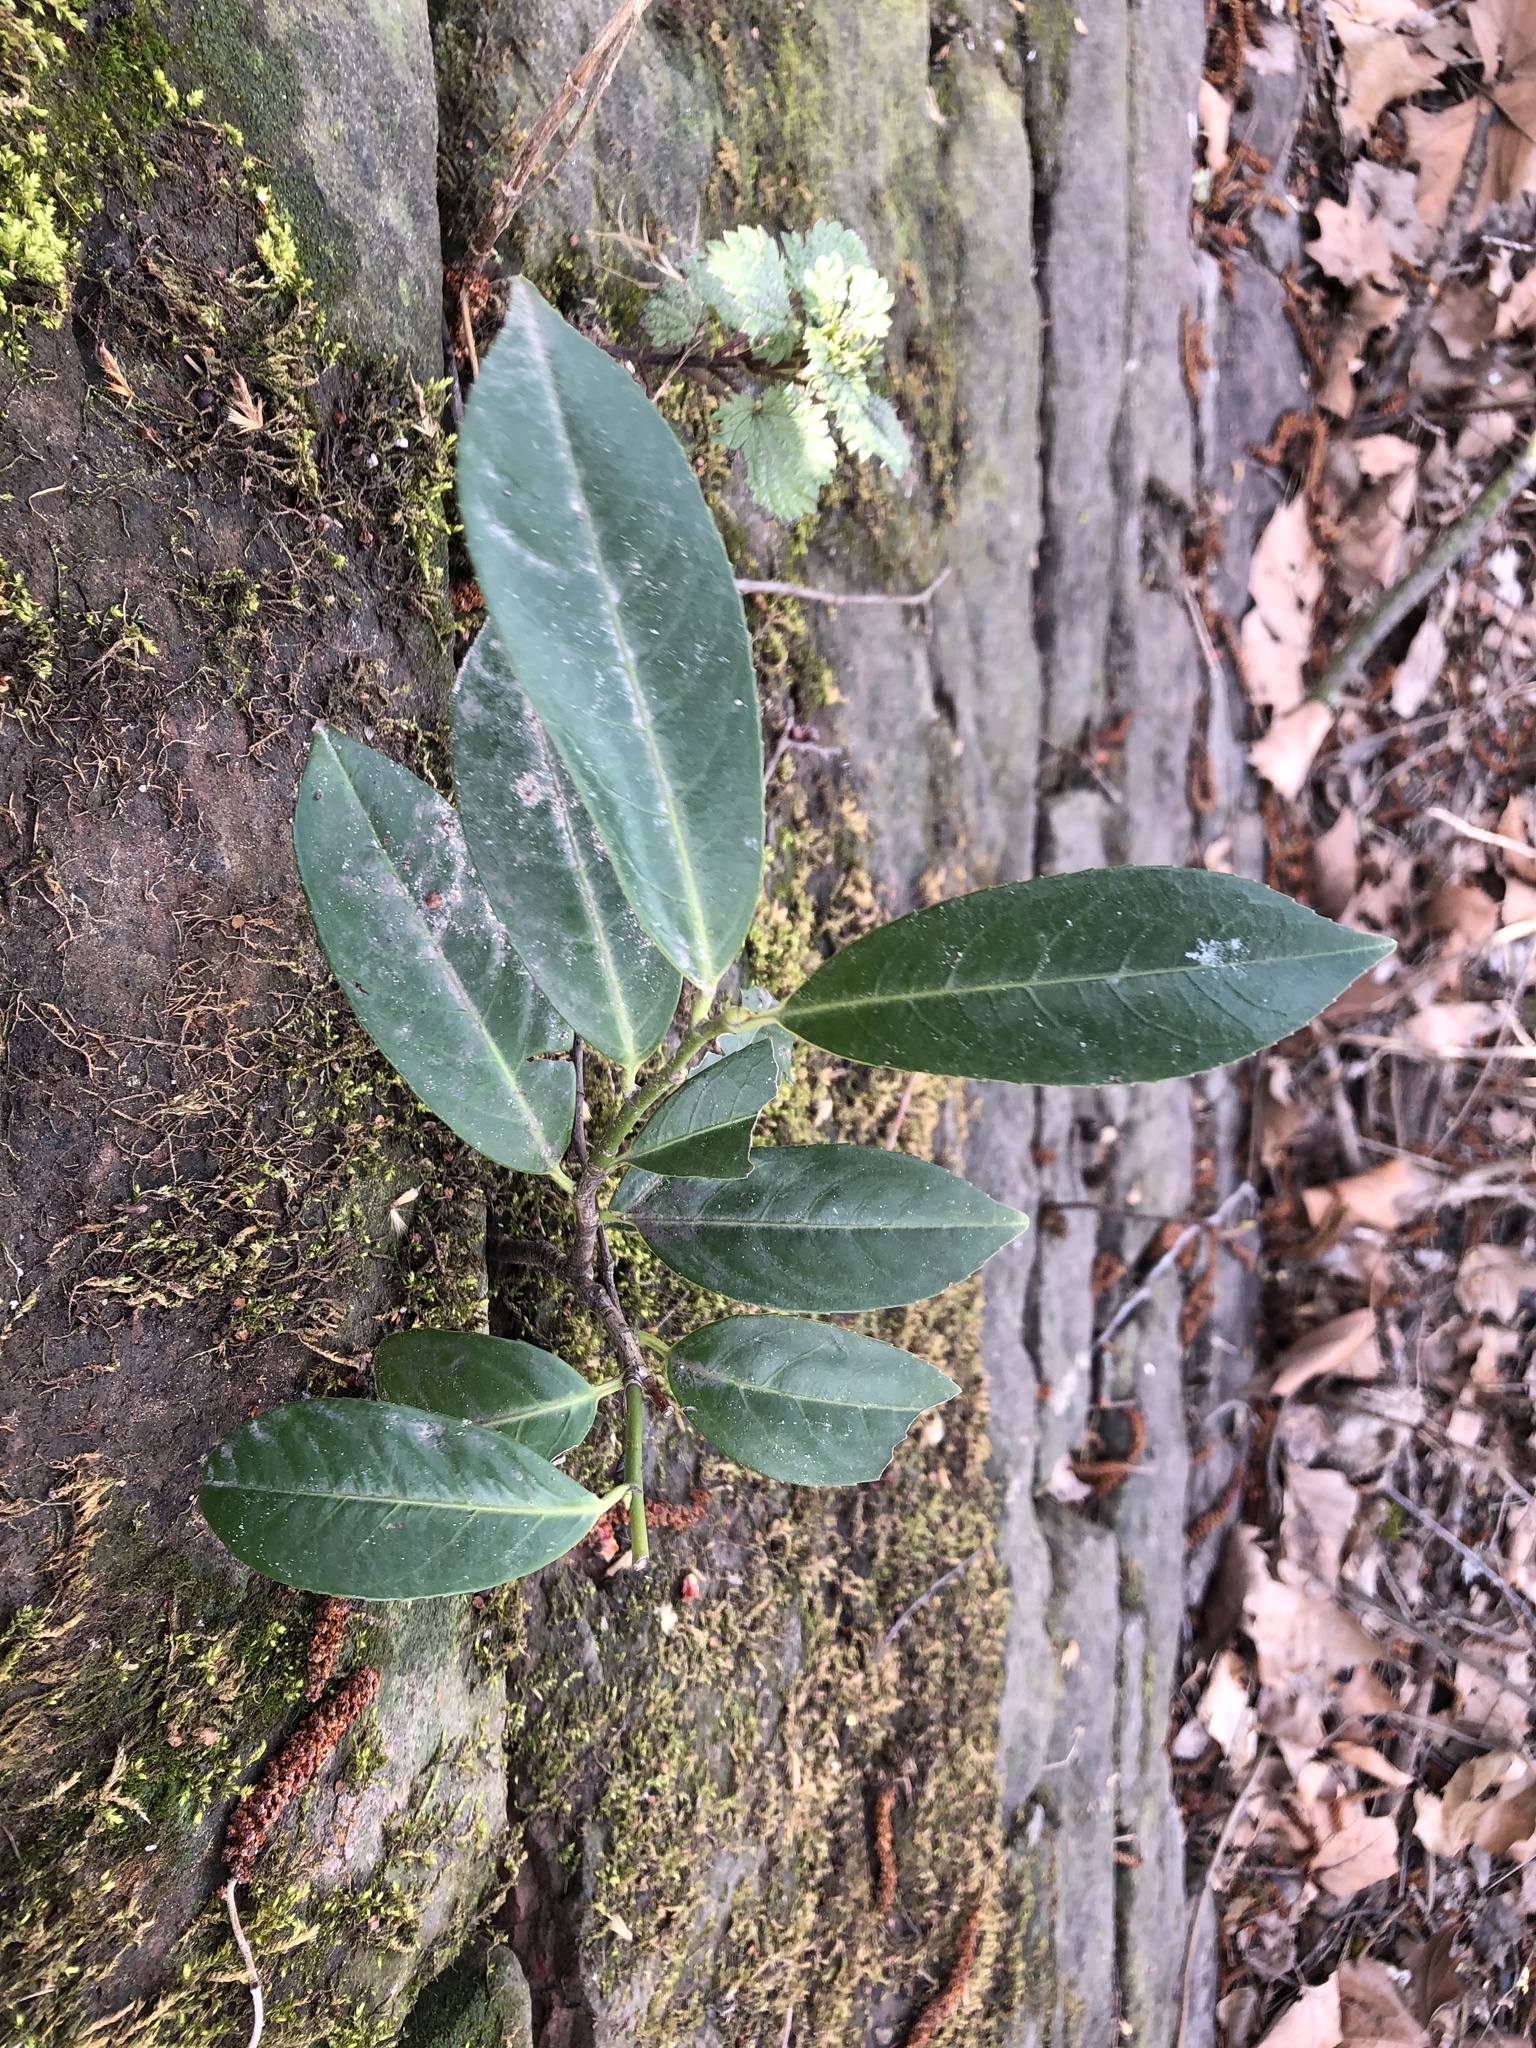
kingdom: Plantae
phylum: Tracheophyta
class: Magnoliopsida
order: Rosales
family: Rosaceae
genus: Prunus
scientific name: Prunus laurocerasus
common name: Cherry laurel
